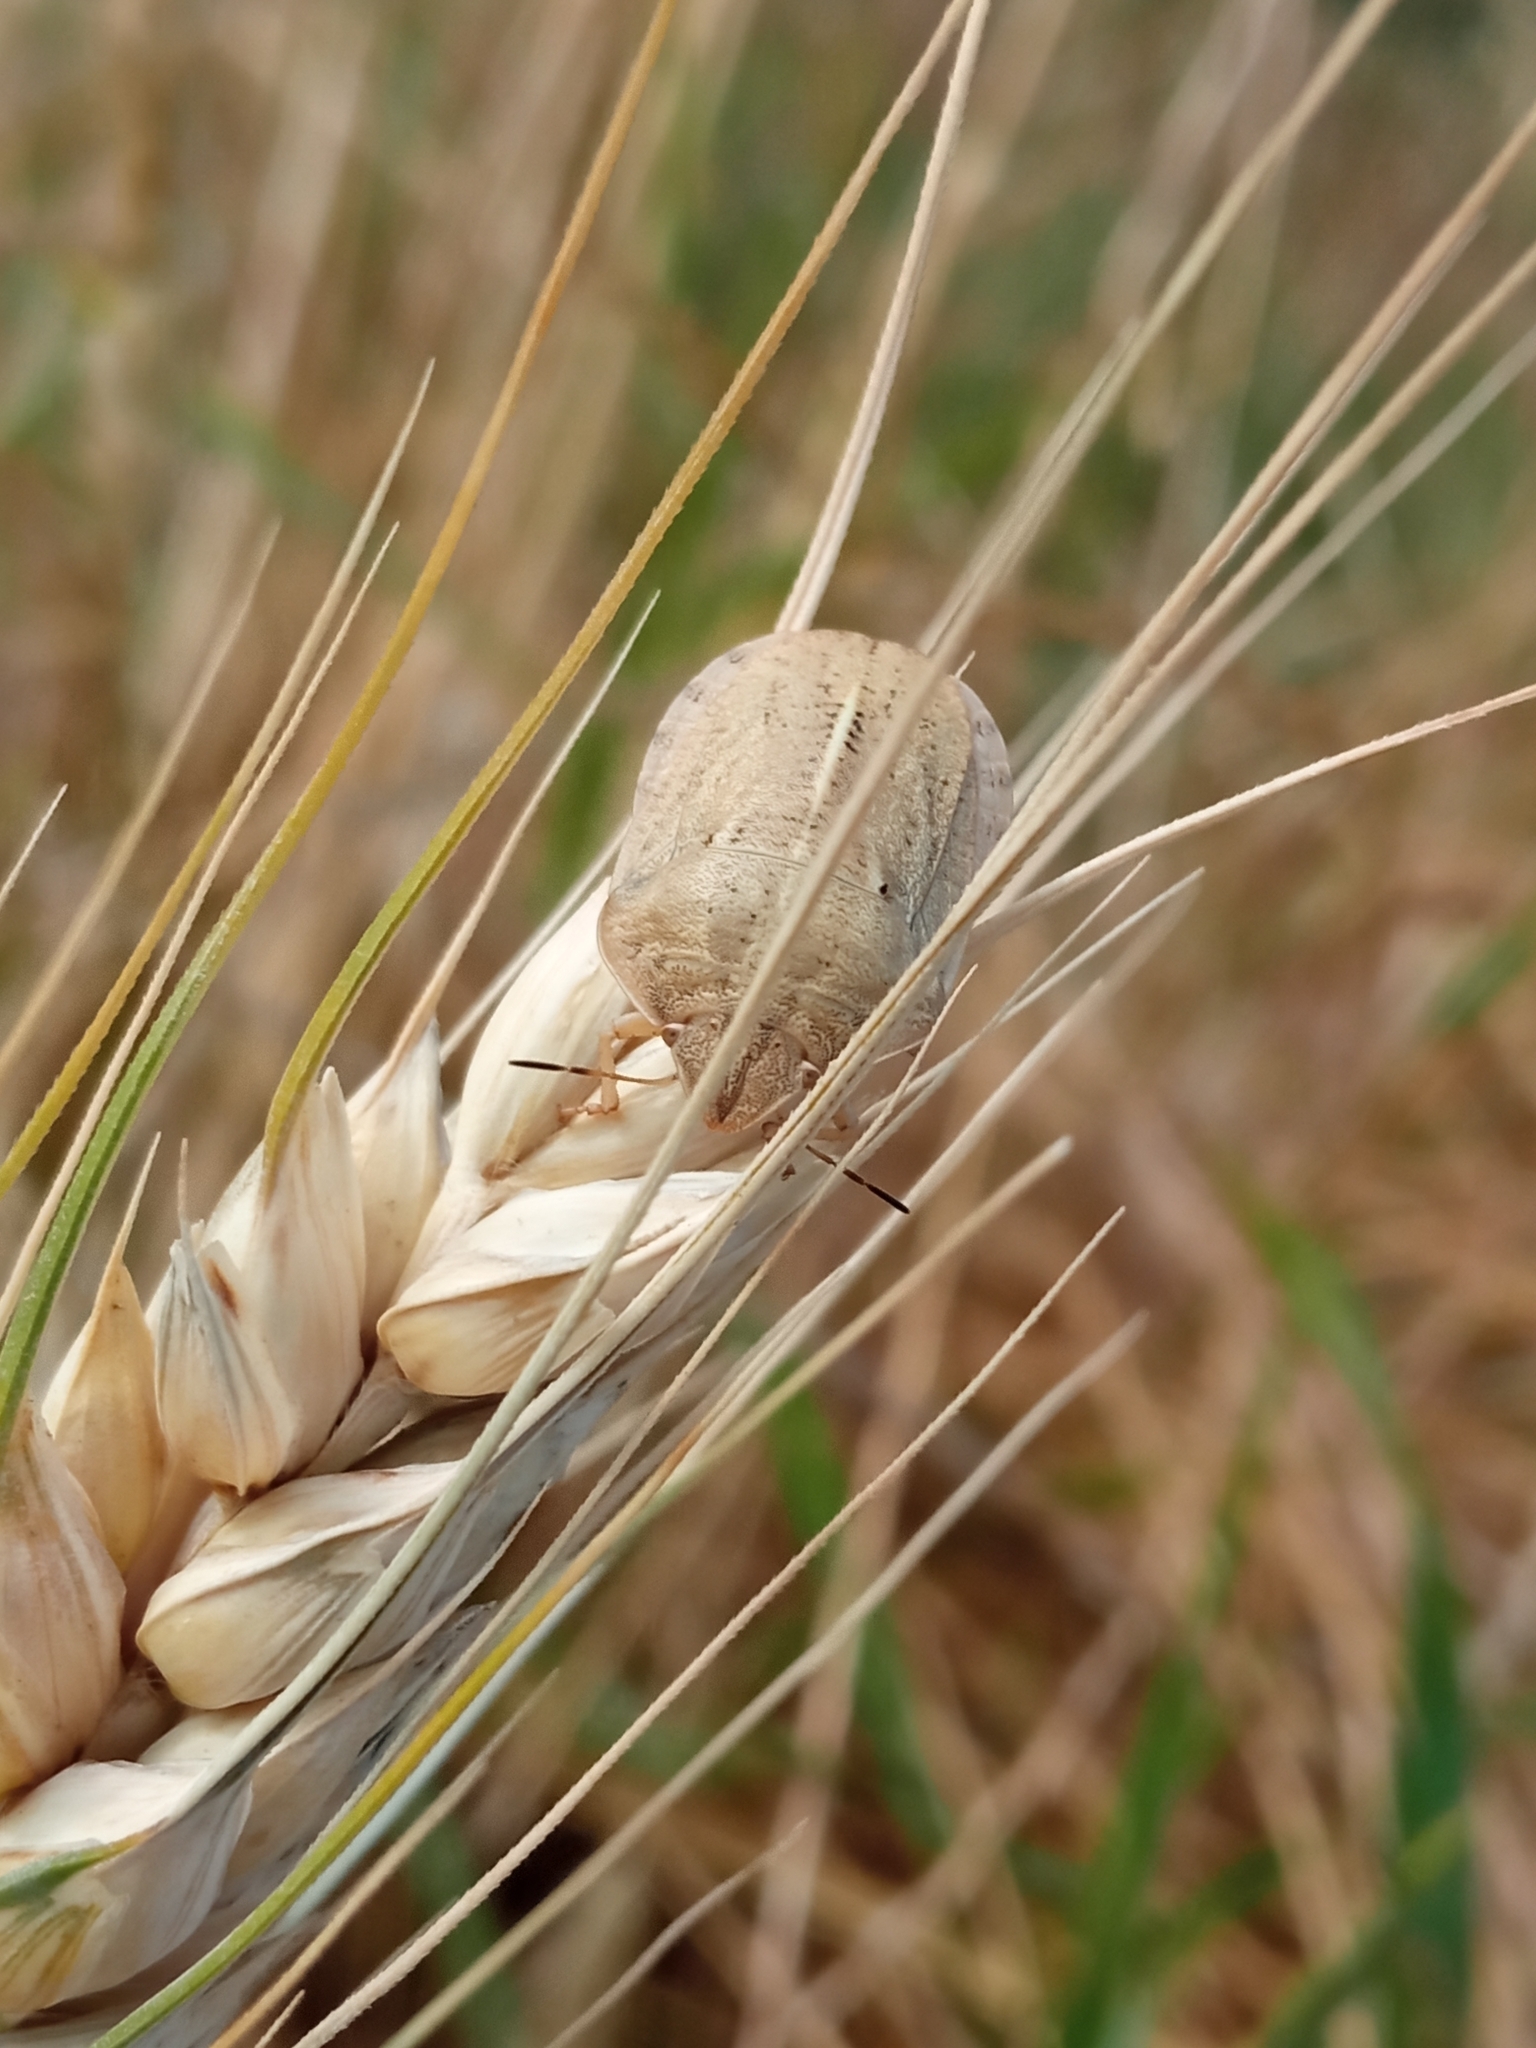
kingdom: Animalia
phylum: Arthropoda
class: Insecta
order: Hemiptera
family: Scutelleridae
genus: Eurygaster
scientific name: Eurygaster austriaca
